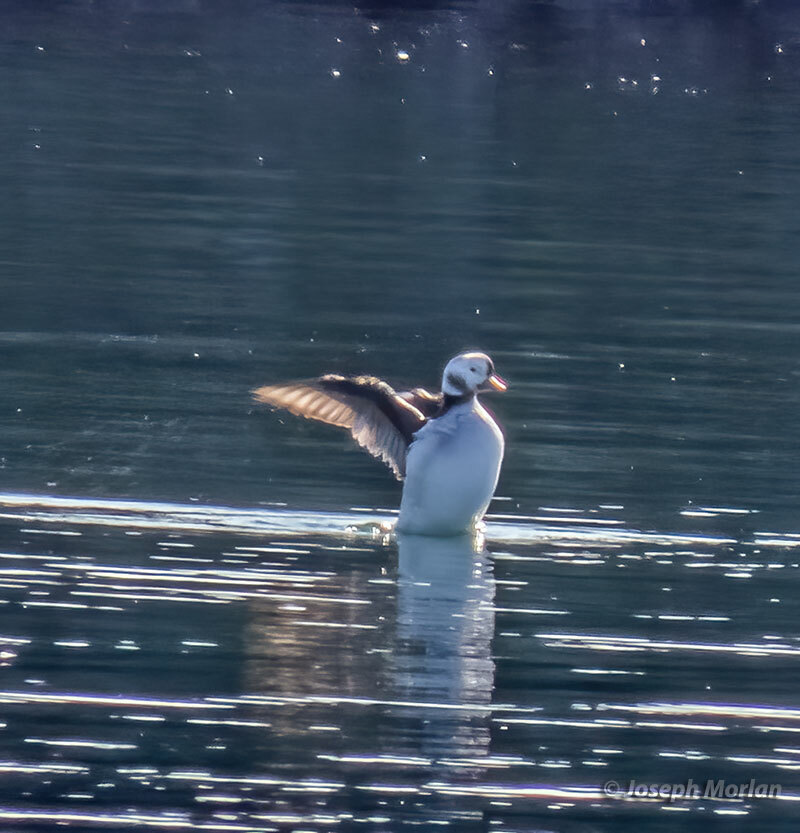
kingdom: Animalia
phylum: Chordata
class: Aves
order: Anseriformes
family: Anatidae
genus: Clangula
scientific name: Clangula hyemalis
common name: Long-tailed duck
